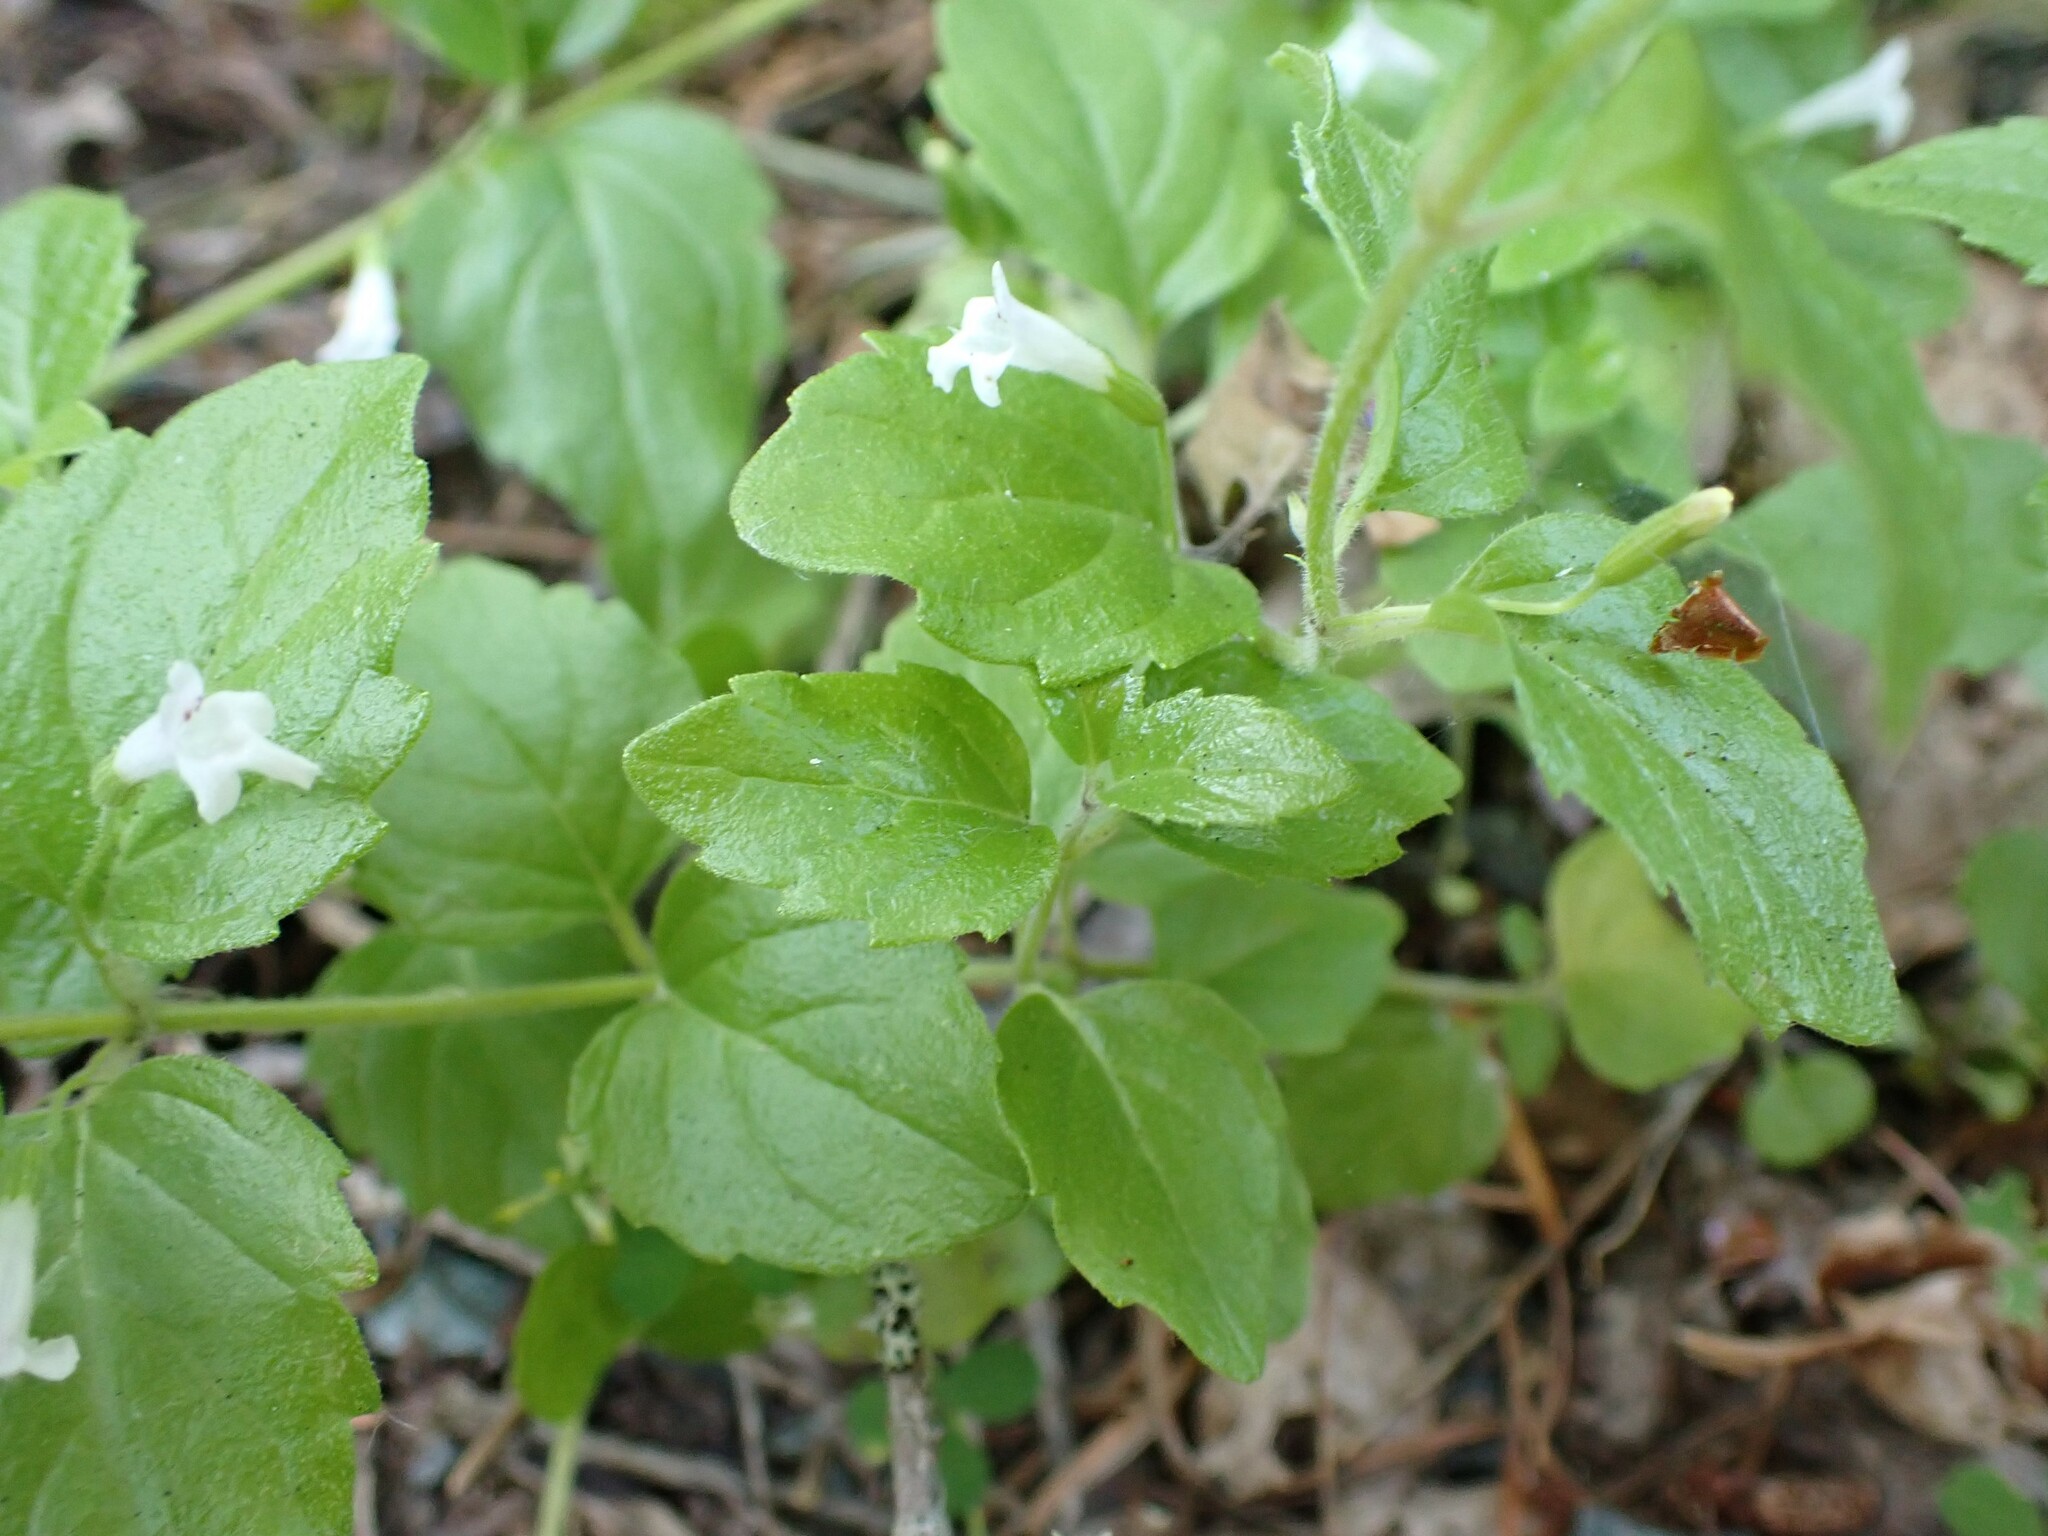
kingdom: Plantae
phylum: Tracheophyta
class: Magnoliopsida
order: Lamiales
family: Lamiaceae
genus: Micromeria
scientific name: Micromeria douglasii
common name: Yerba buena
